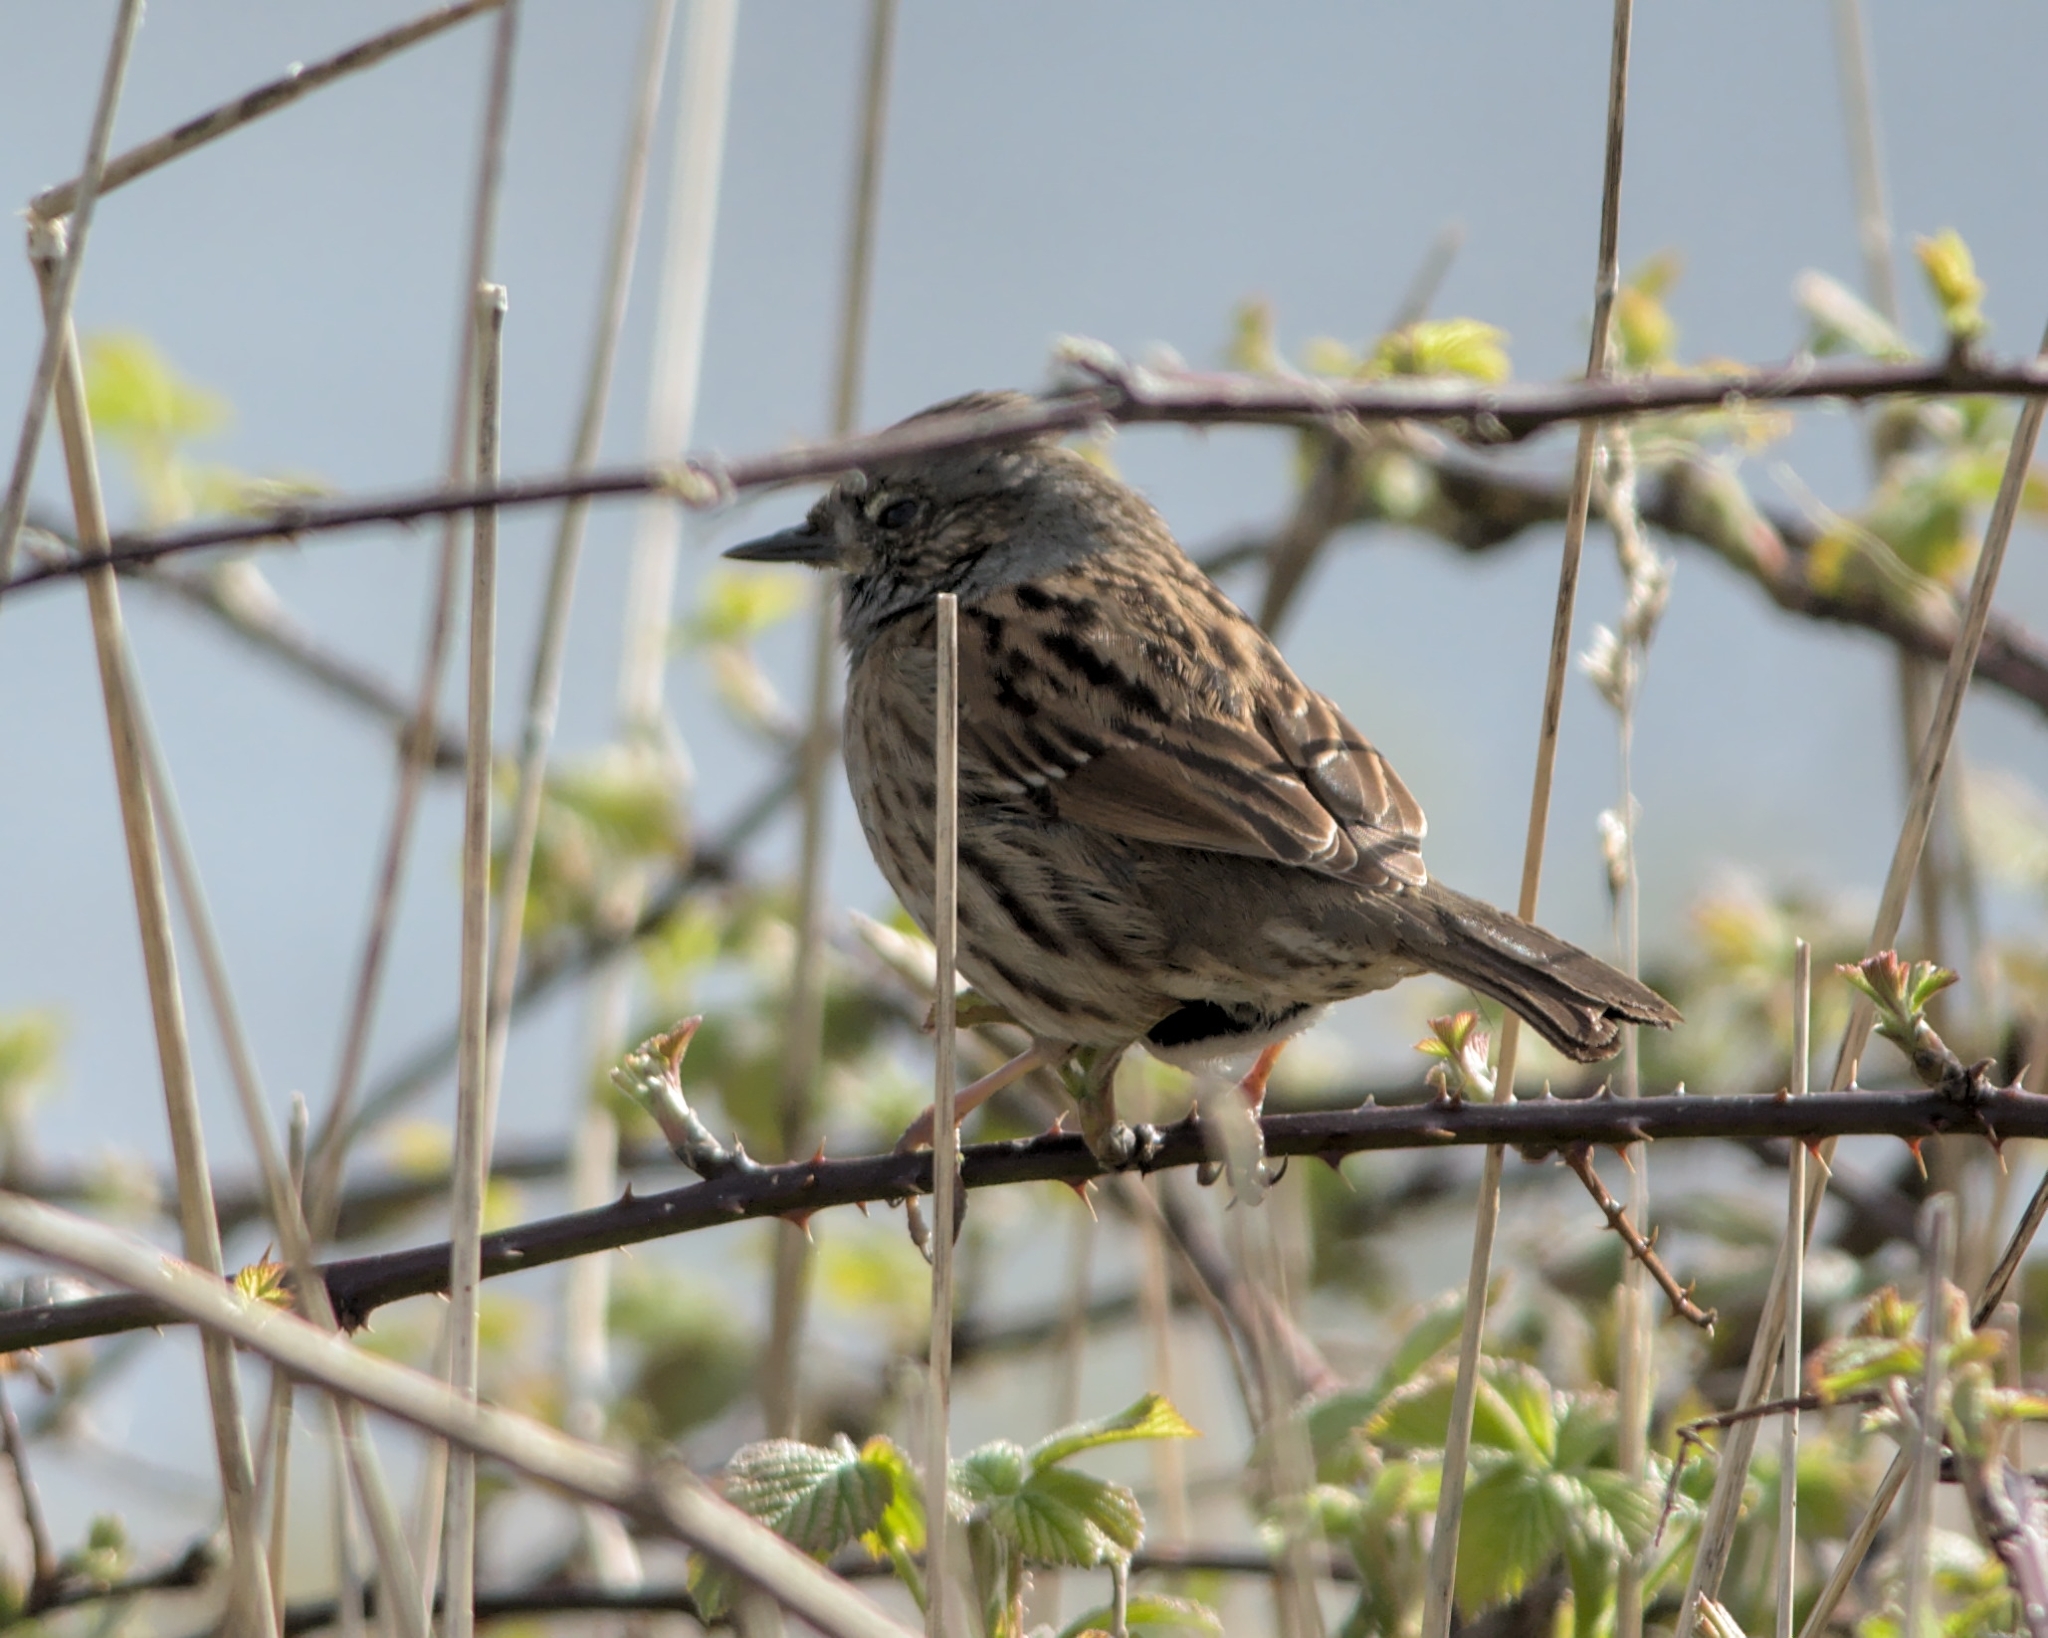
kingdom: Animalia
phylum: Chordata
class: Aves
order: Passeriformes
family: Prunellidae
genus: Prunella
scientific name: Prunella modularis
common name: Dunnock
